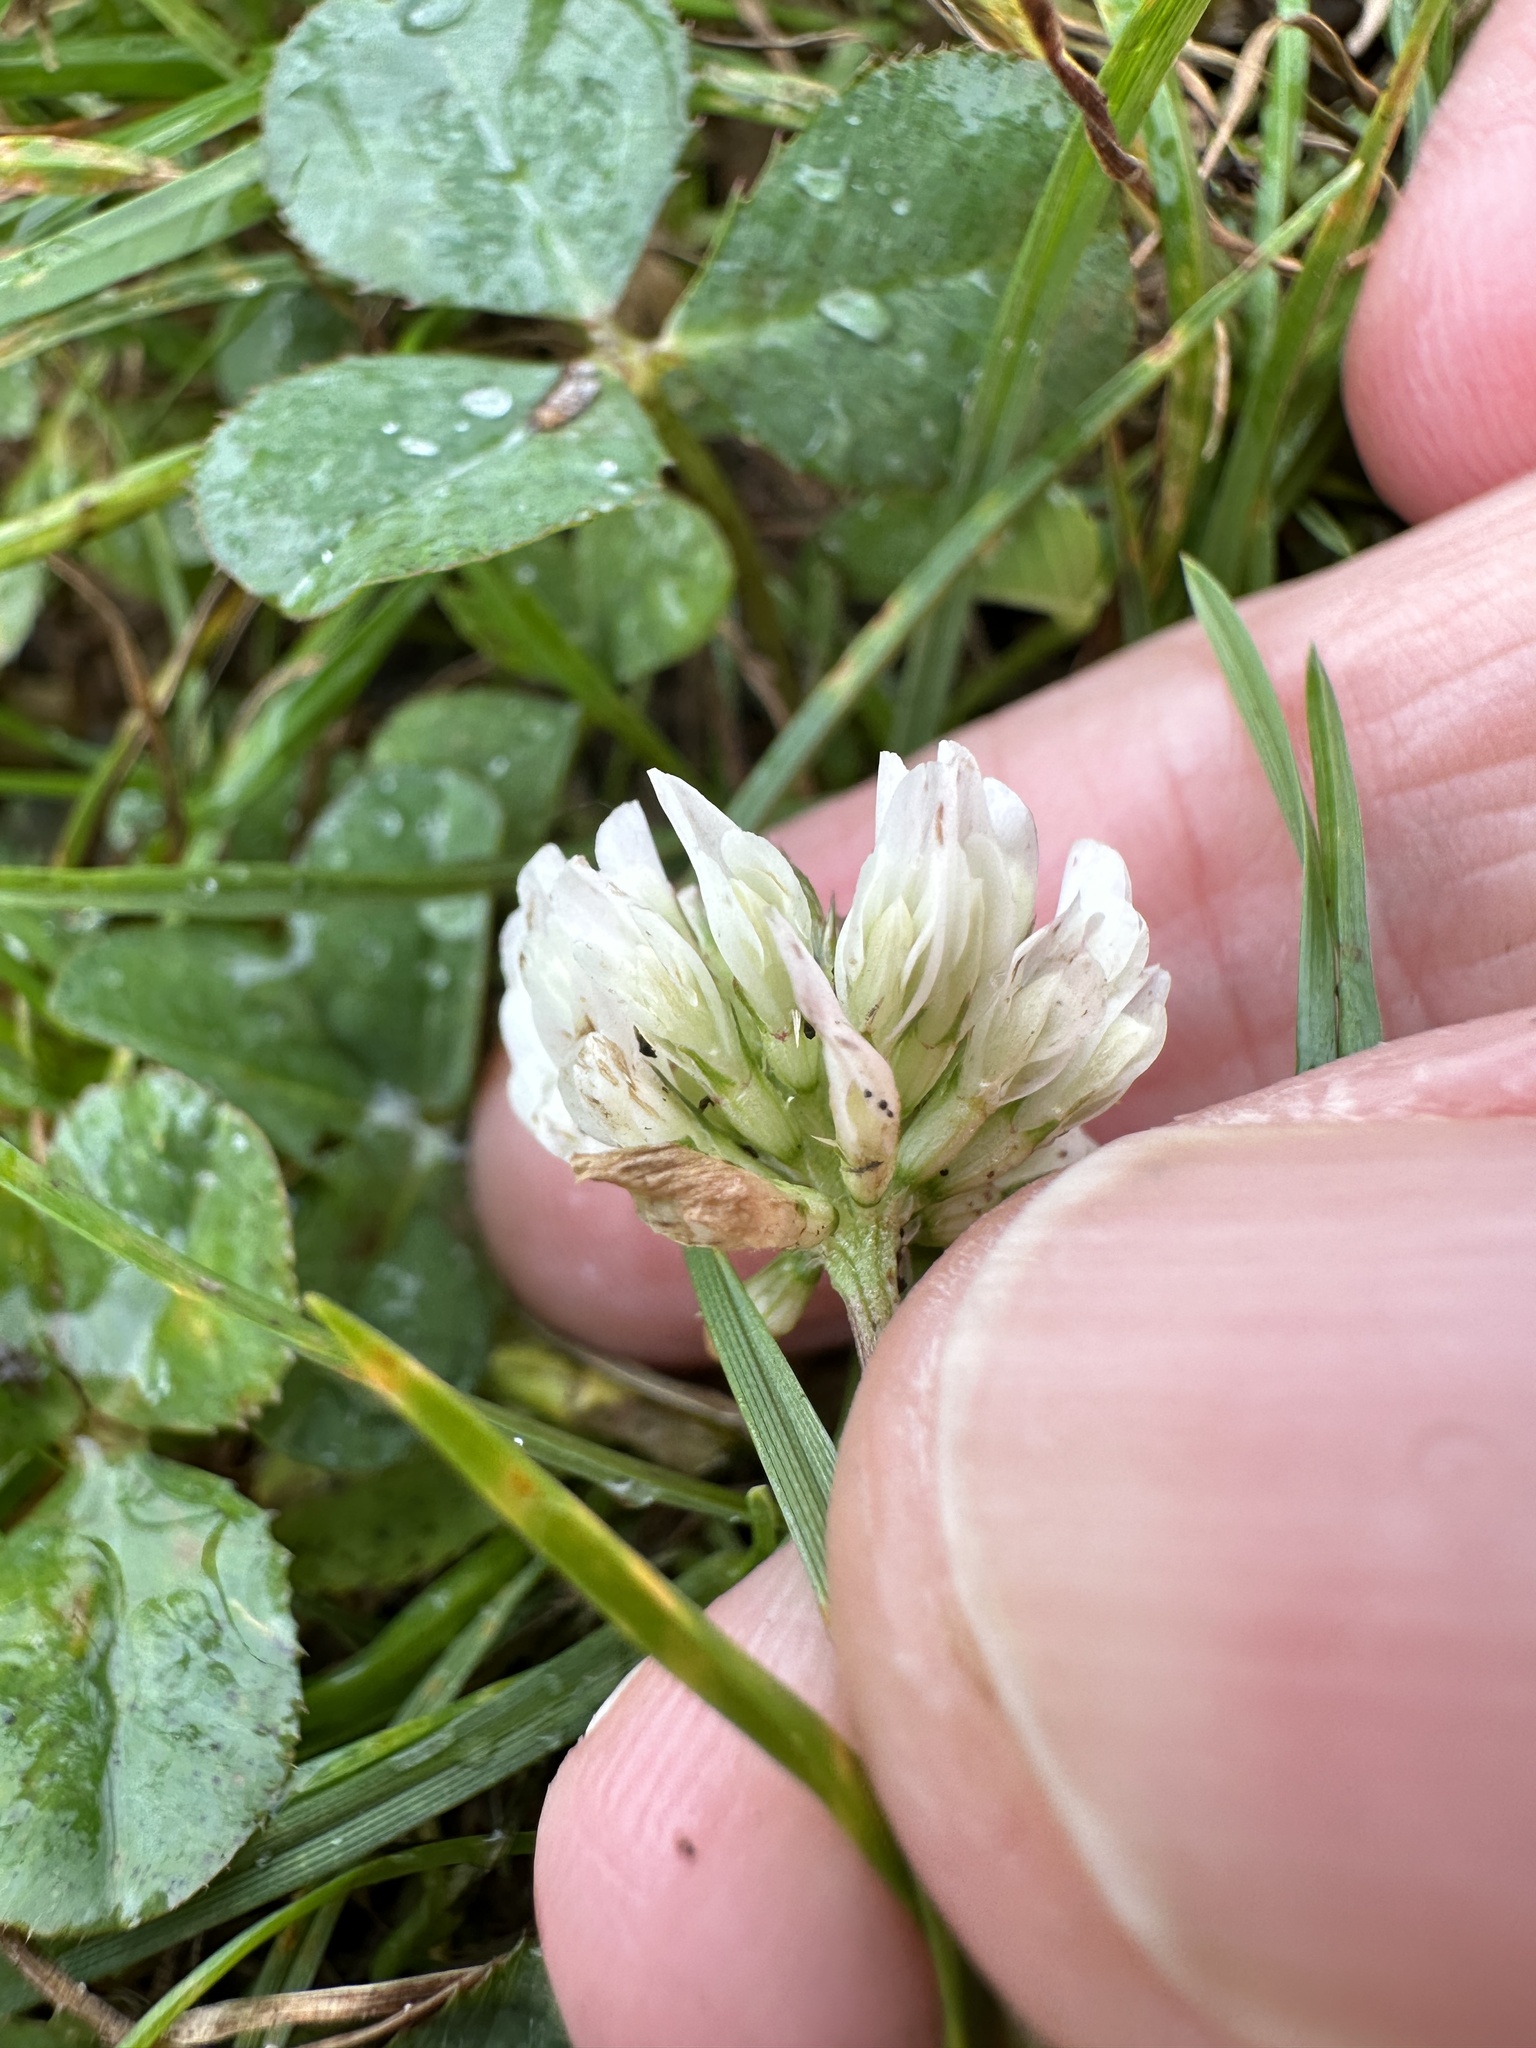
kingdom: Plantae
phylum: Tracheophyta
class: Magnoliopsida
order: Fabales
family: Fabaceae
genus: Trifolium
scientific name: Trifolium repens
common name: White clover
